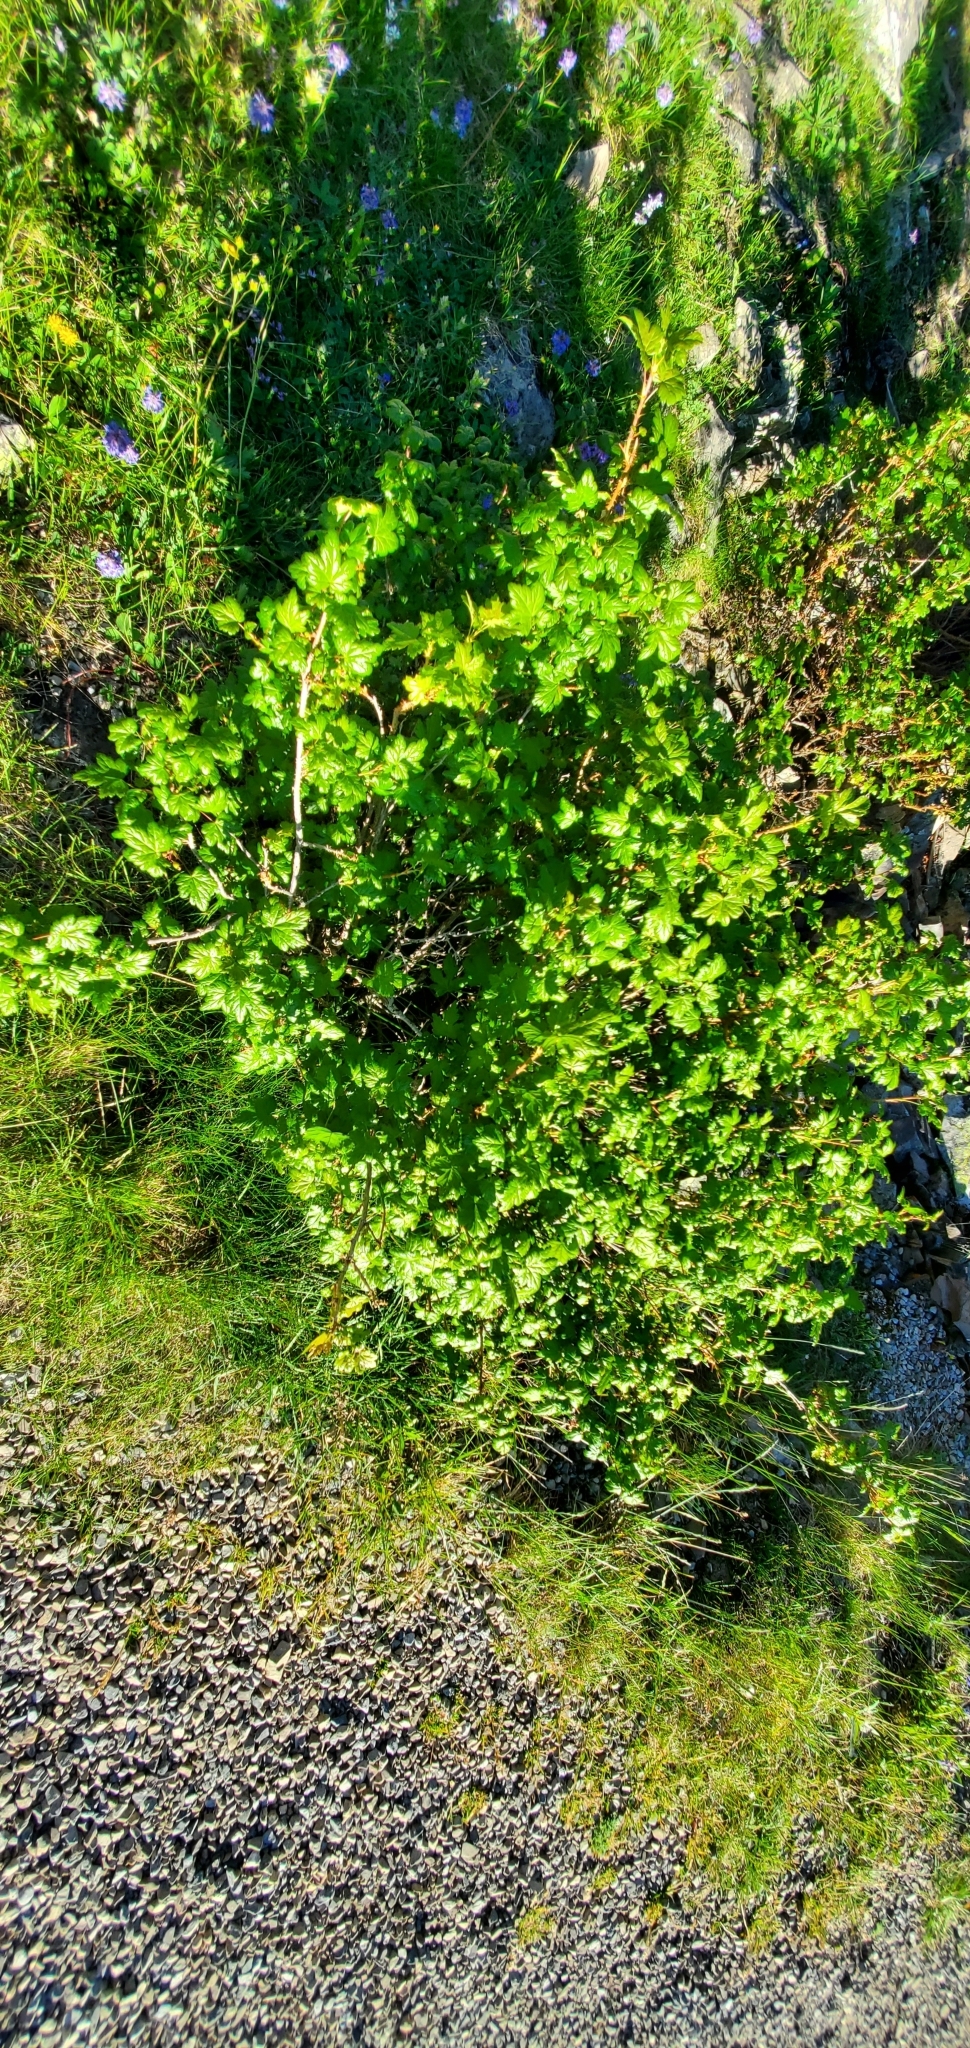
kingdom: Plantae
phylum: Tracheophyta
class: Magnoliopsida
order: Saxifragales
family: Grossulariaceae
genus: Ribes
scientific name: Ribes oxyacanthoides
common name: Northern gooseberry
